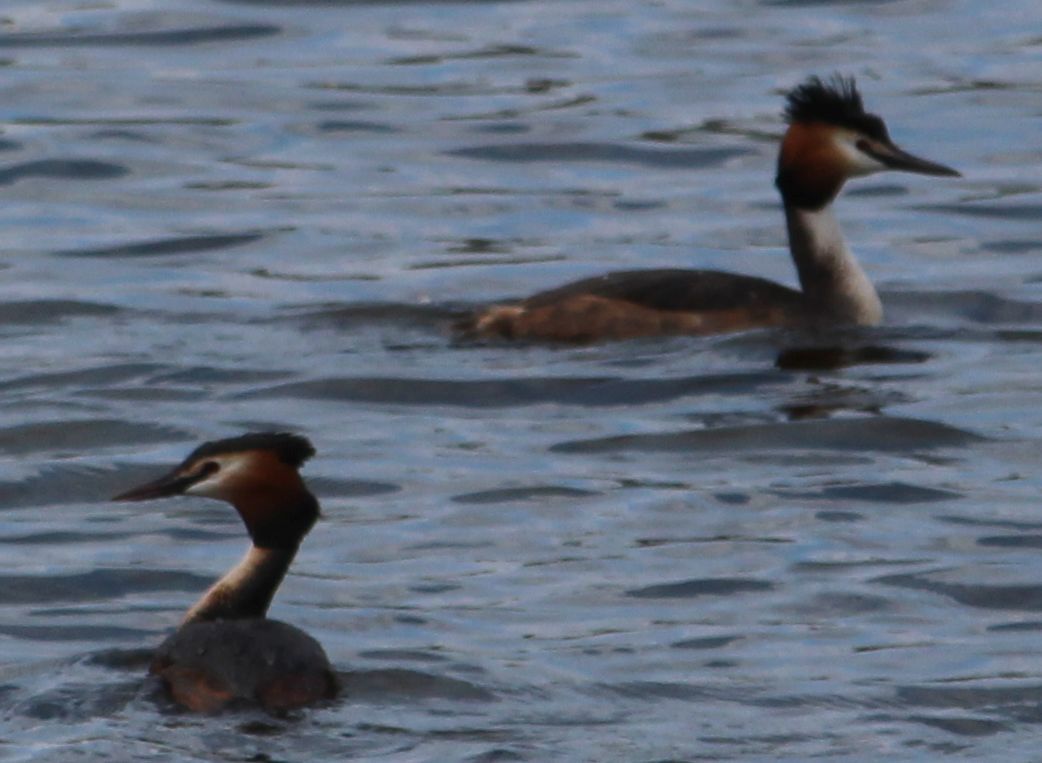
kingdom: Animalia
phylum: Chordata
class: Aves
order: Podicipediformes
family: Podicipedidae
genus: Podiceps
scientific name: Podiceps cristatus
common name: Great crested grebe
